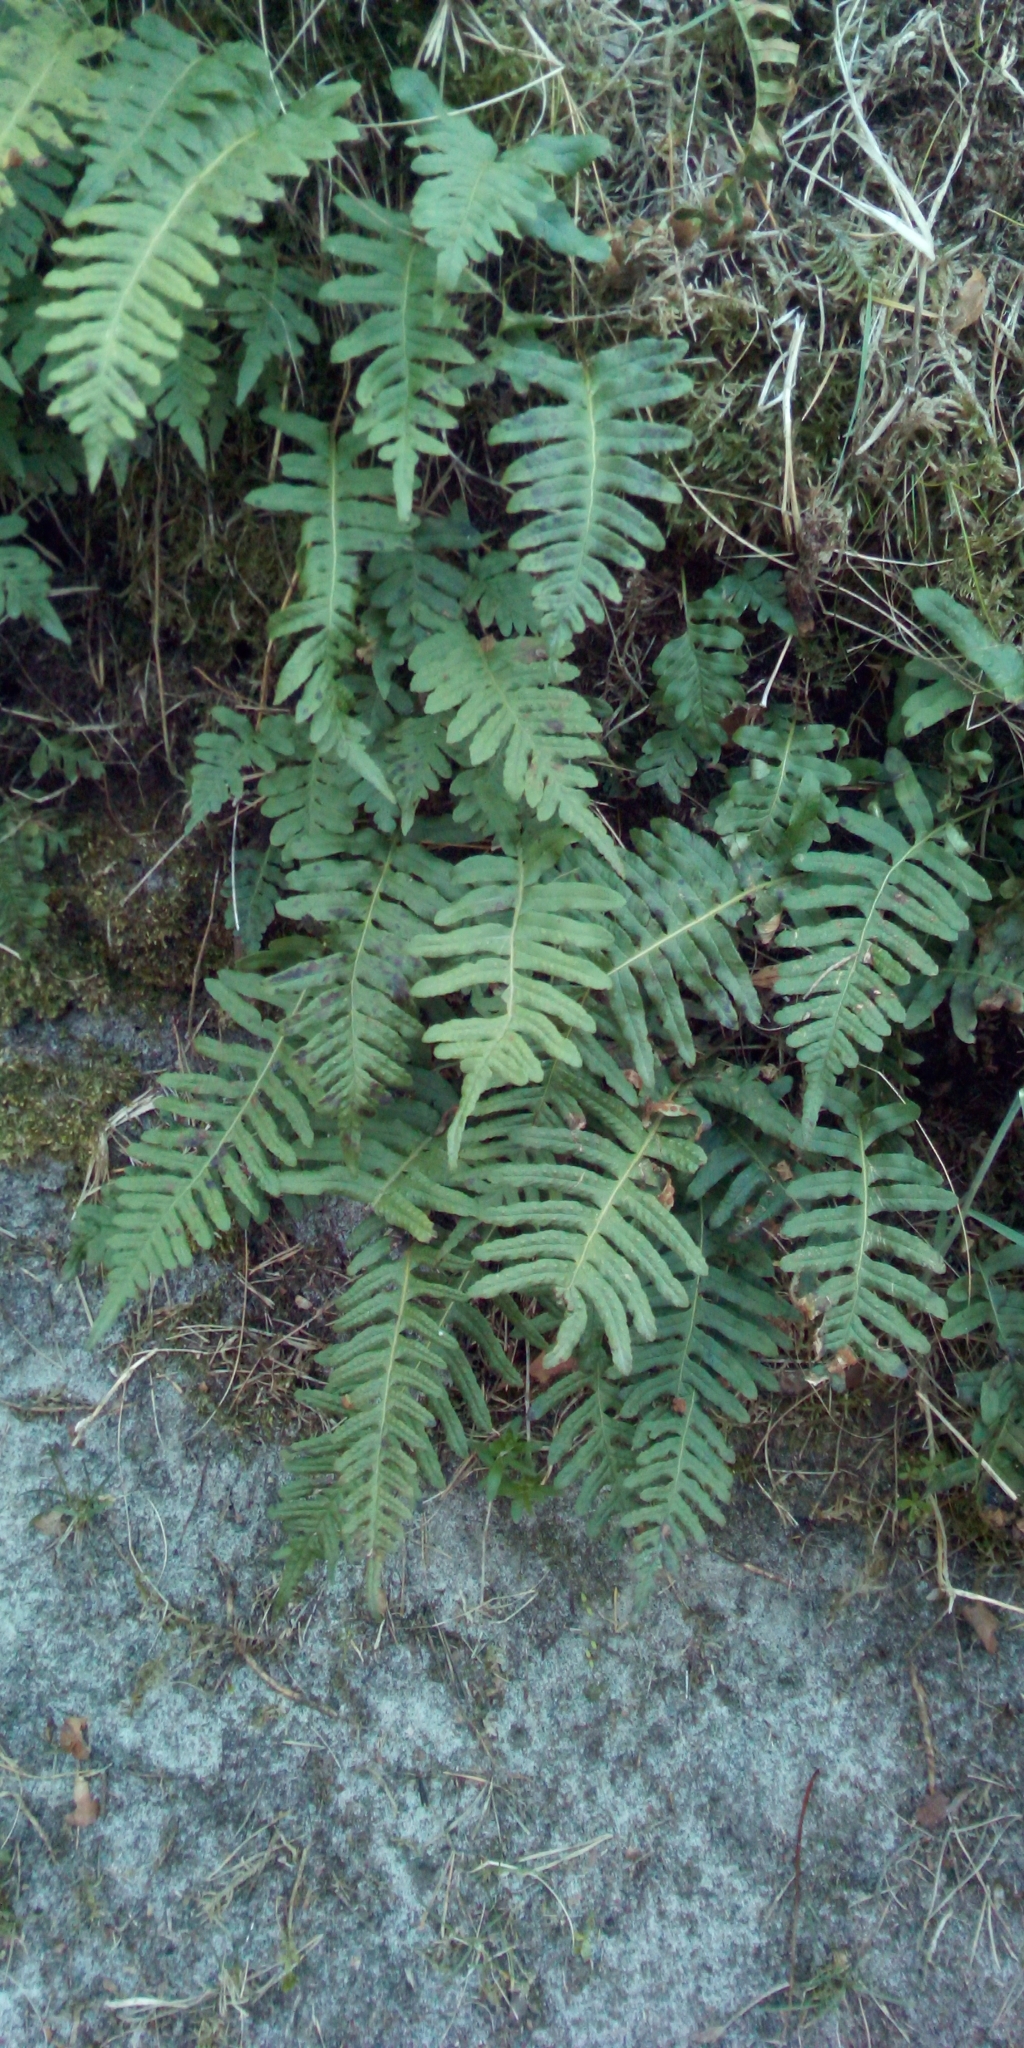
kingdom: Plantae
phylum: Tracheophyta
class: Polypodiopsida
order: Polypodiales
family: Polypodiaceae
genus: Polypodium
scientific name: Polypodium vulgare
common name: Common polypody
